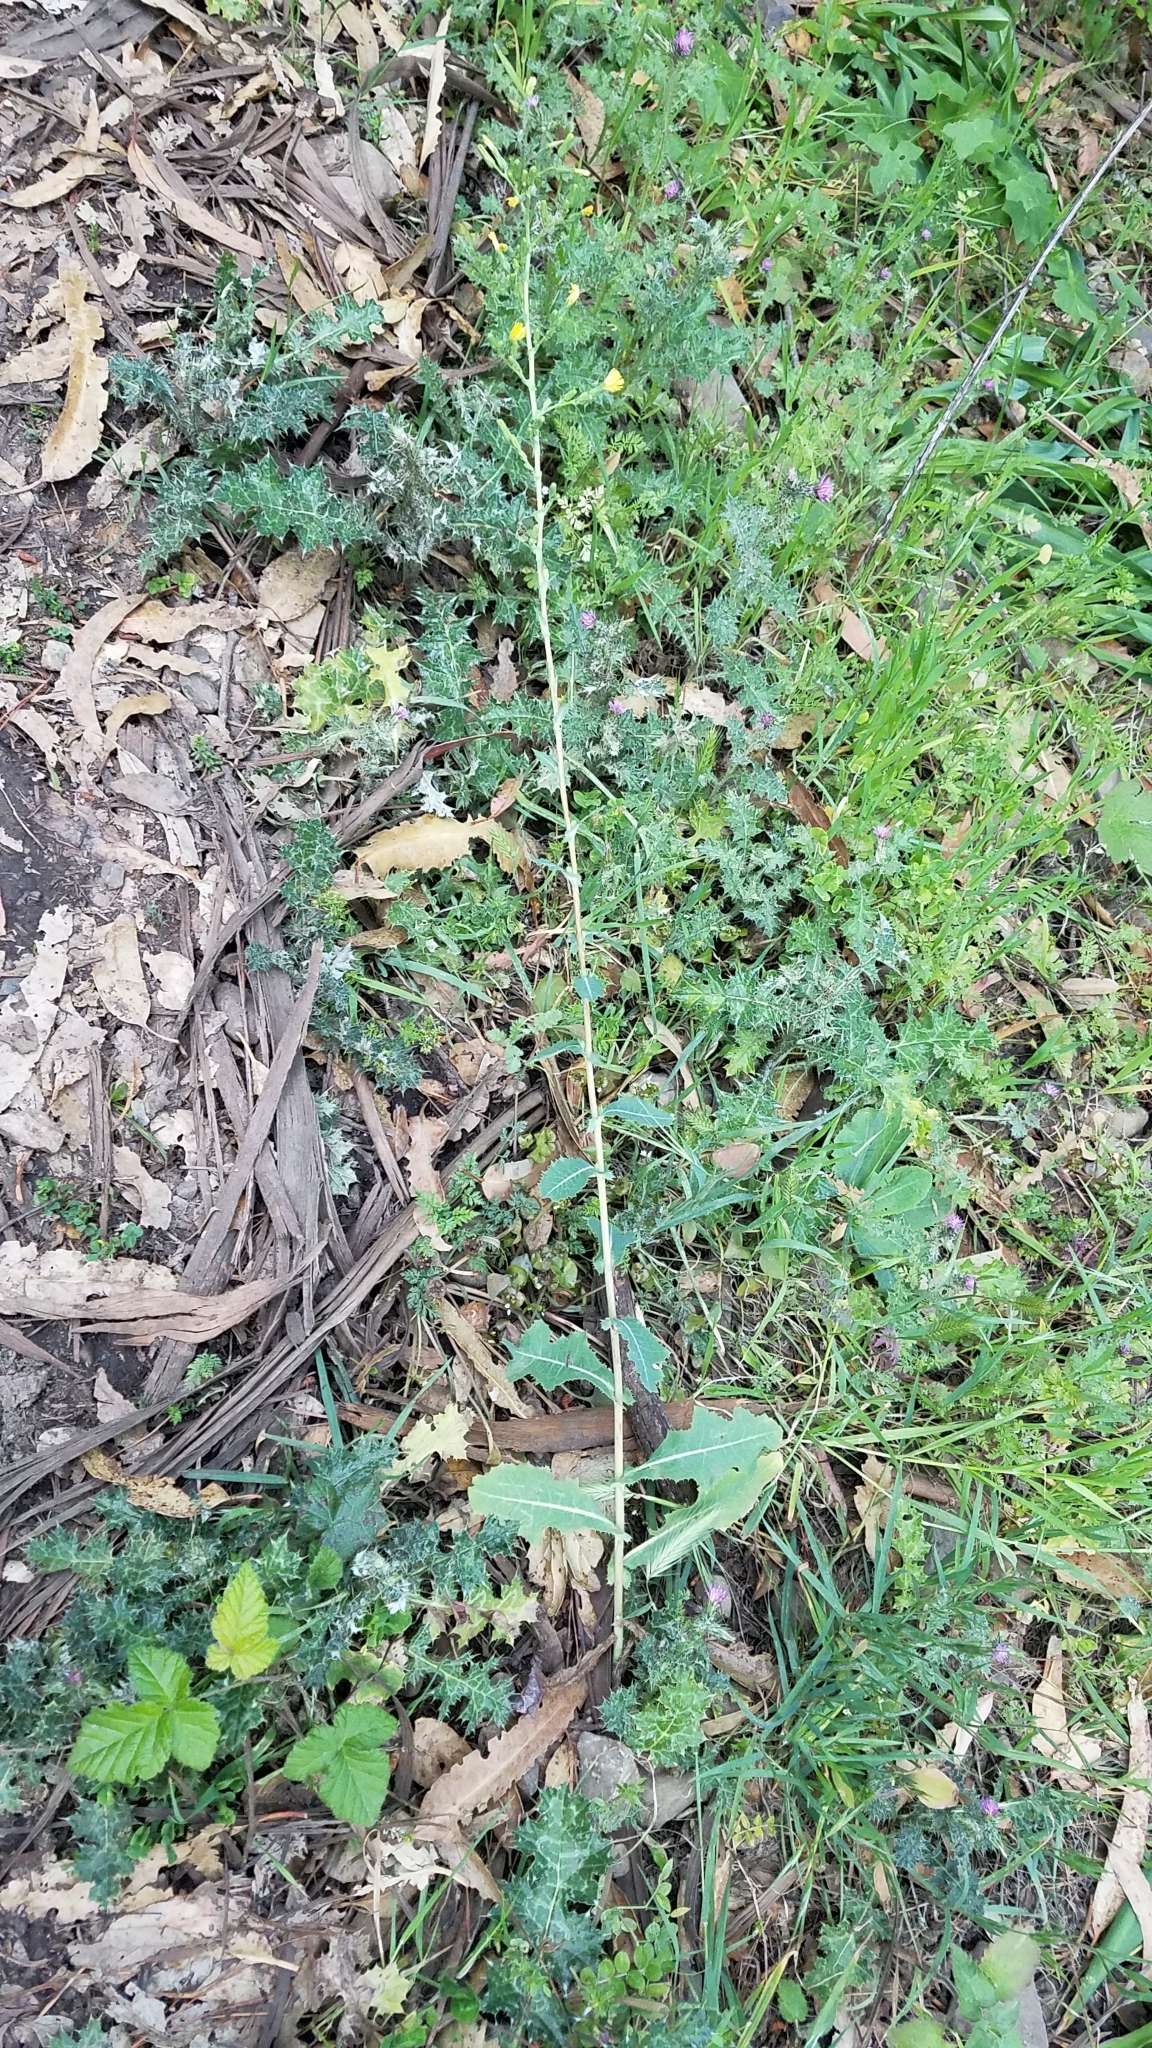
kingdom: Plantae
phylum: Tracheophyta
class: Magnoliopsida
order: Asterales
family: Asteraceae
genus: Lactuca
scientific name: Lactuca serriola
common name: Prickly lettuce
